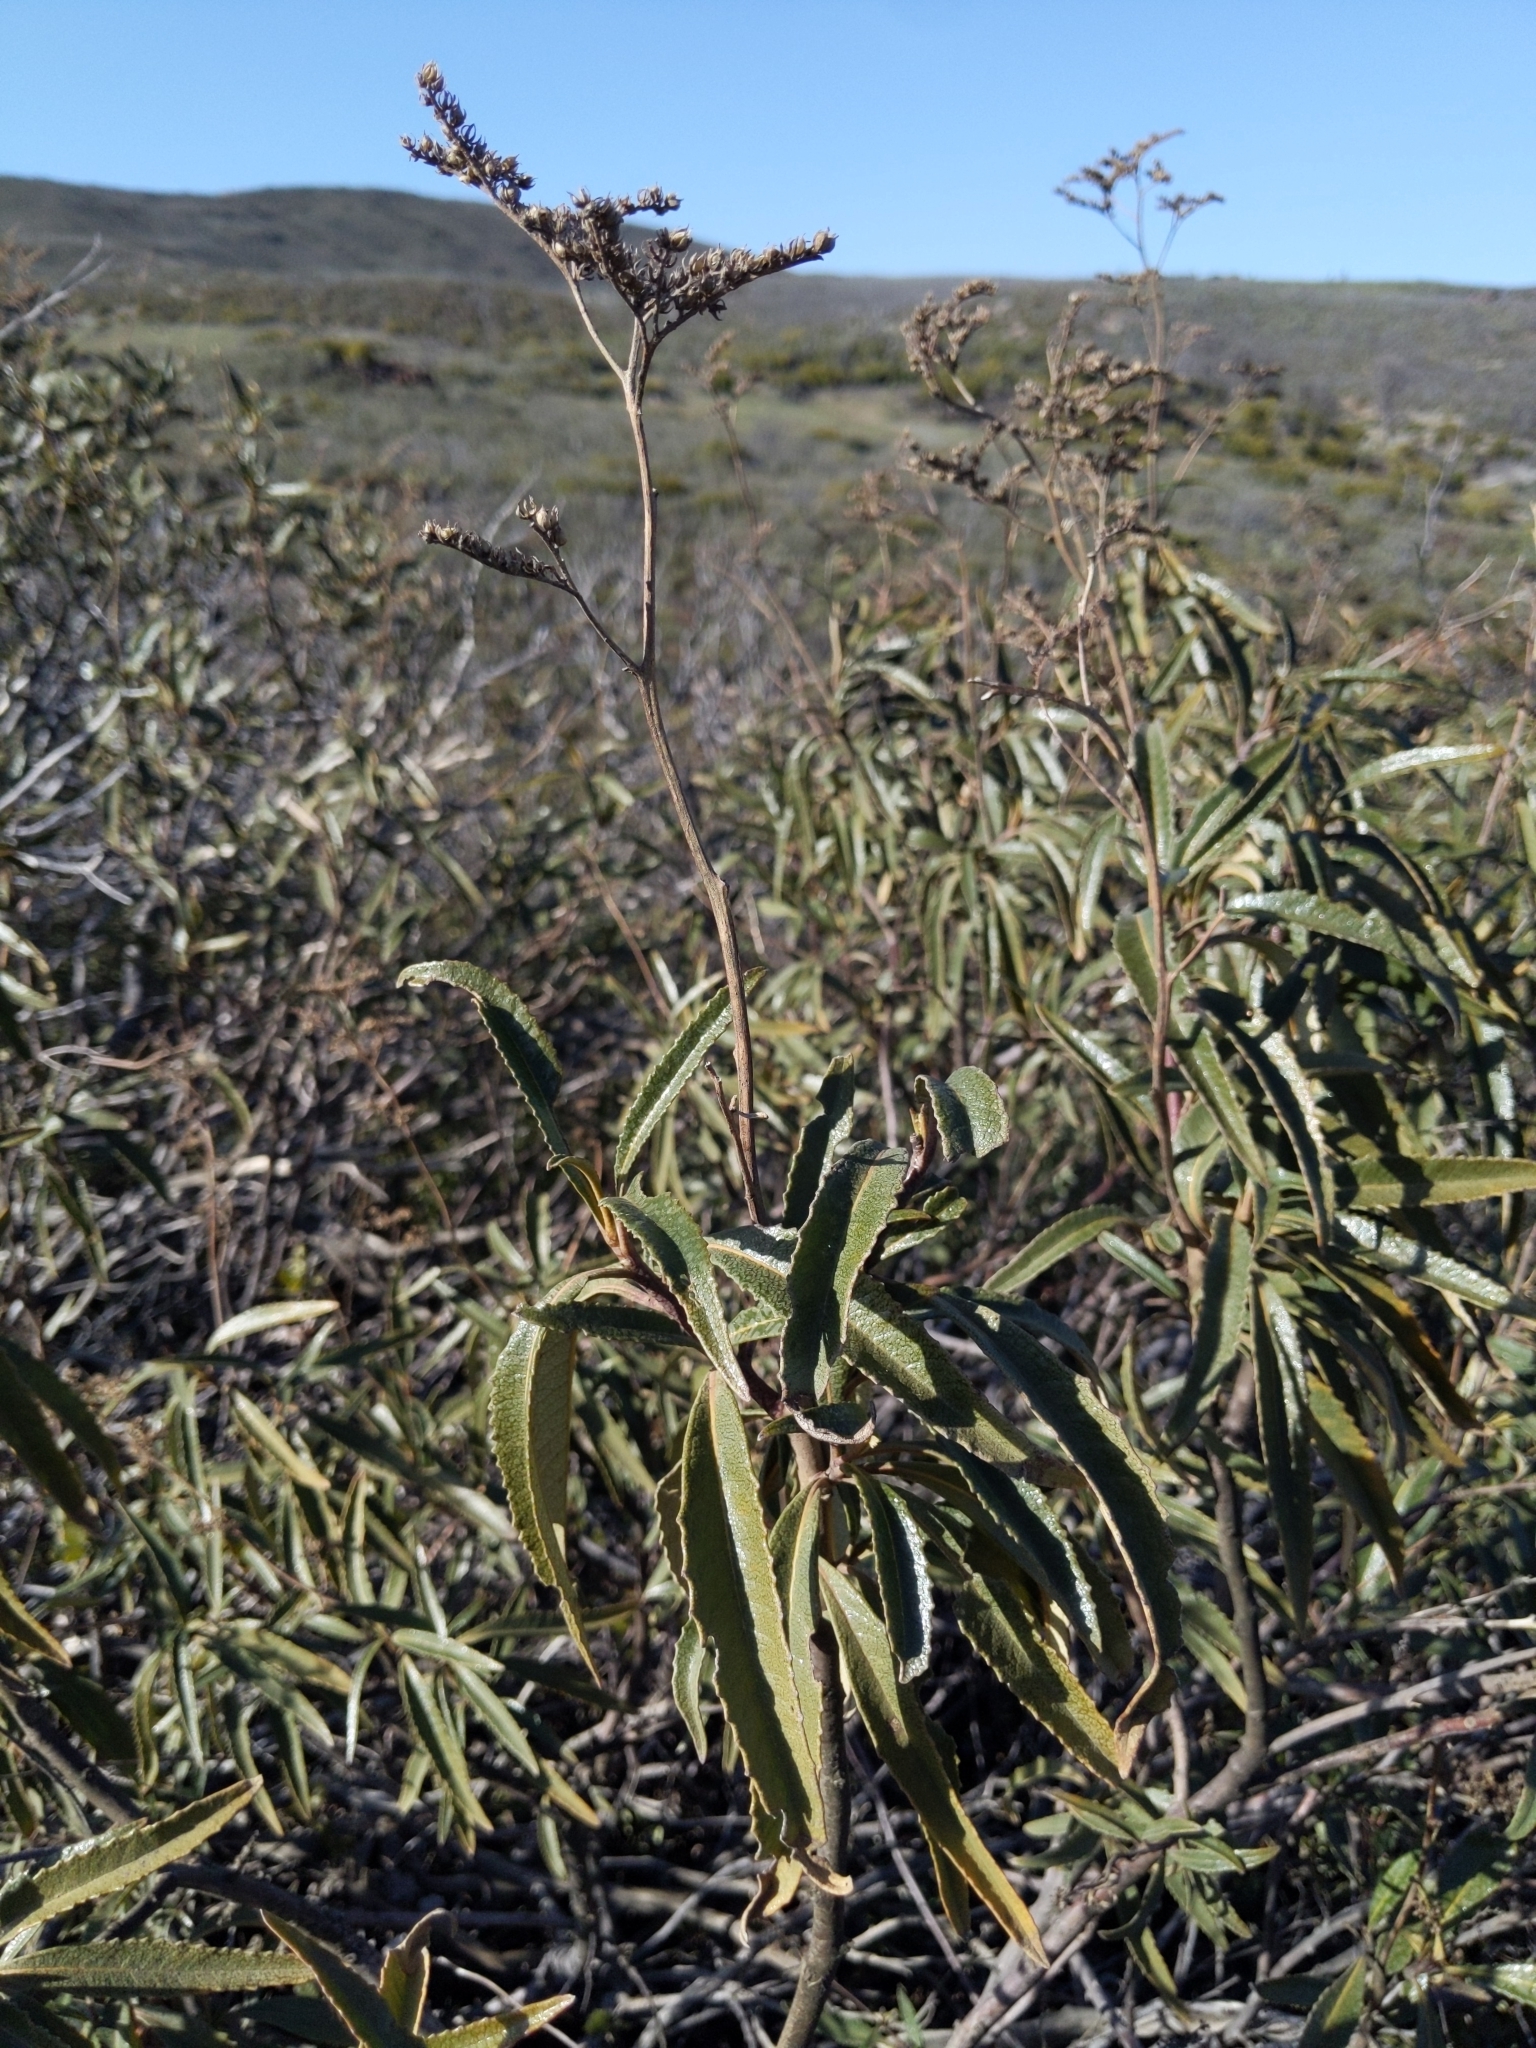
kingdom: Plantae
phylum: Tracheophyta
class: Magnoliopsida
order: Boraginales
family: Namaceae
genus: Eriodictyon
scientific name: Eriodictyon californicum
